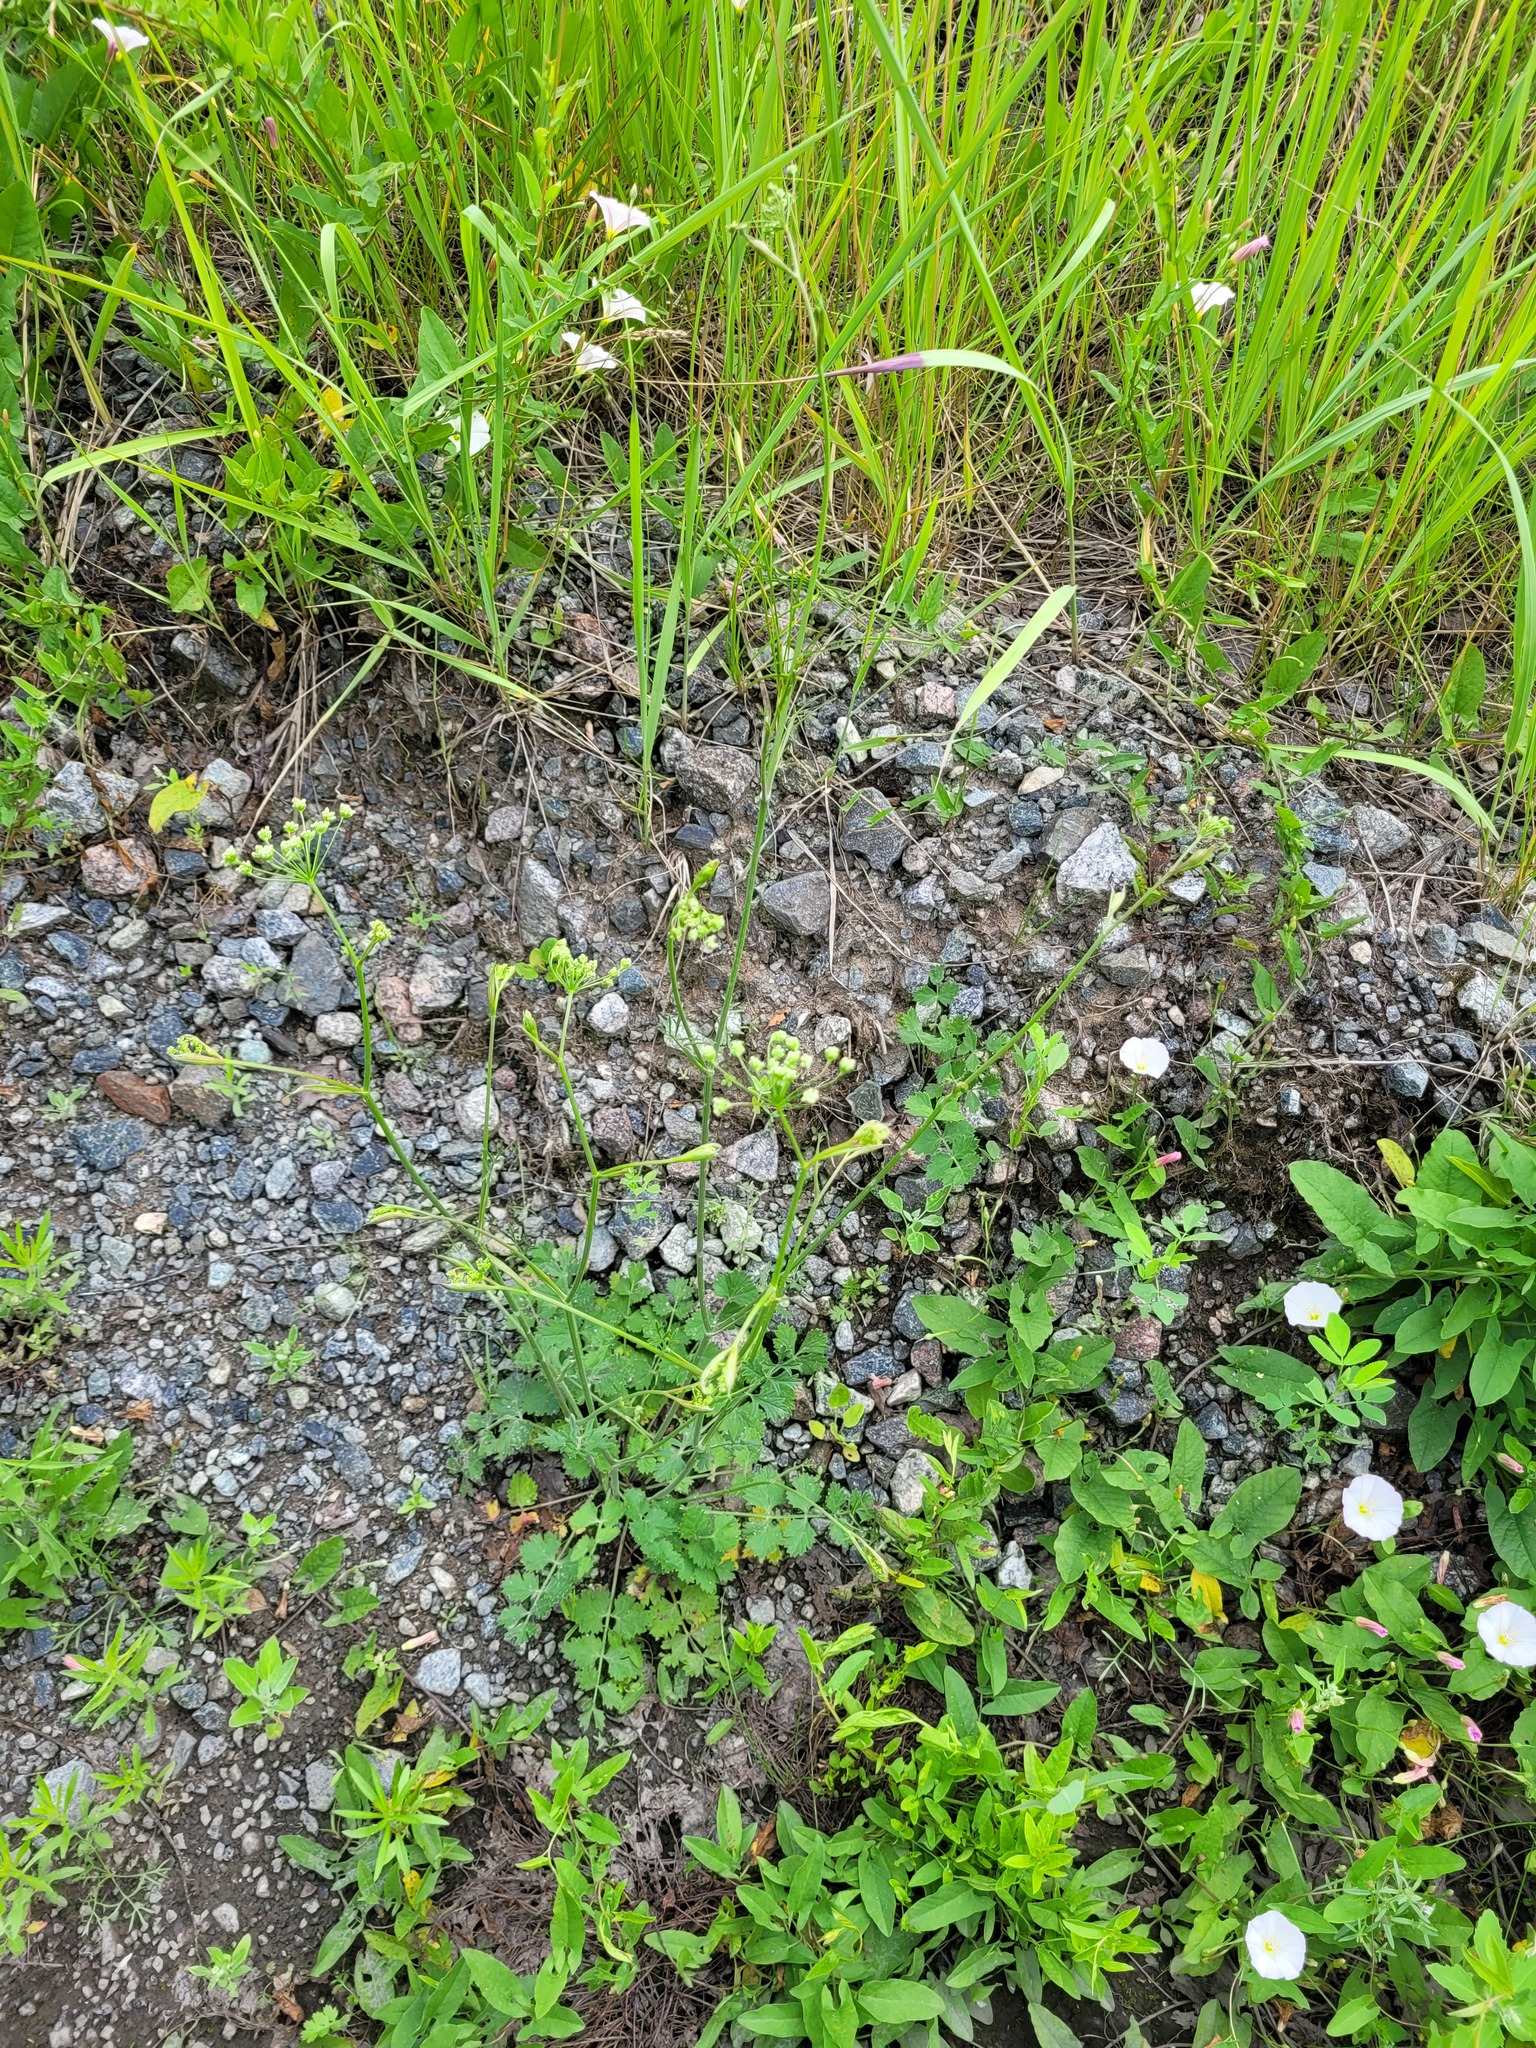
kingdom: Plantae
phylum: Tracheophyta
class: Magnoliopsida
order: Apiales
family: Apiaceae
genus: Pimpinella
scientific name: Pimpinella saxifraga
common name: Burnet-saxifrage
